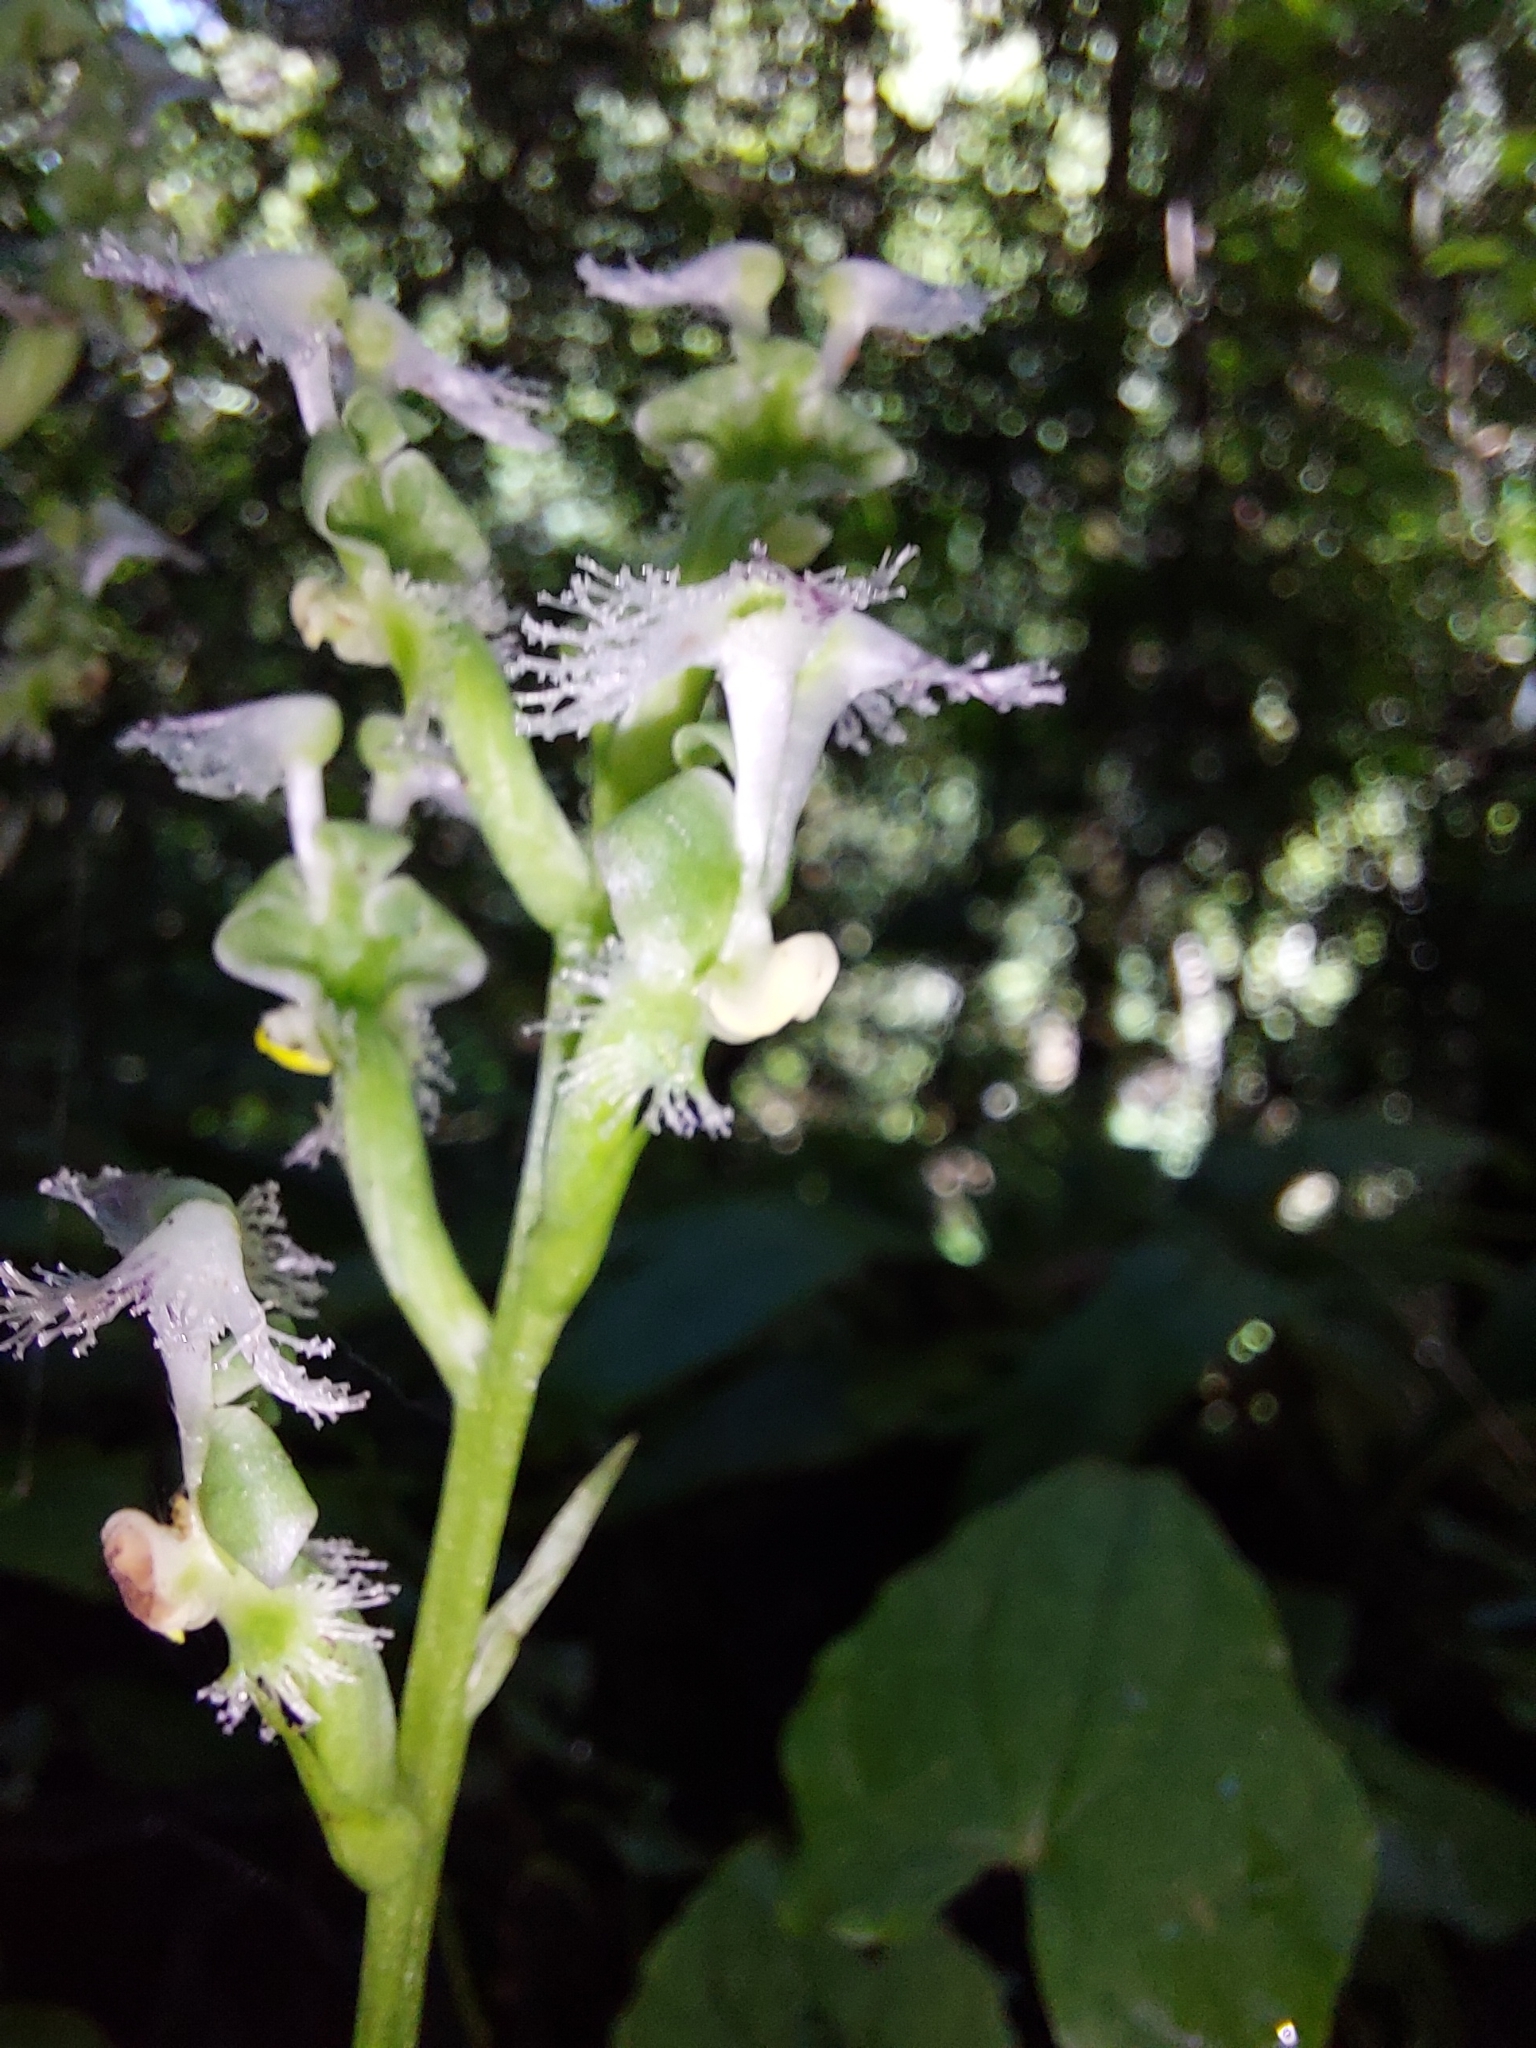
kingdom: Plantae
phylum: Tracheophyta
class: Liliopsida
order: Asparagales
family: Orchidaceae
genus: Huttonaea
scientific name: Huttonaea pulchra
